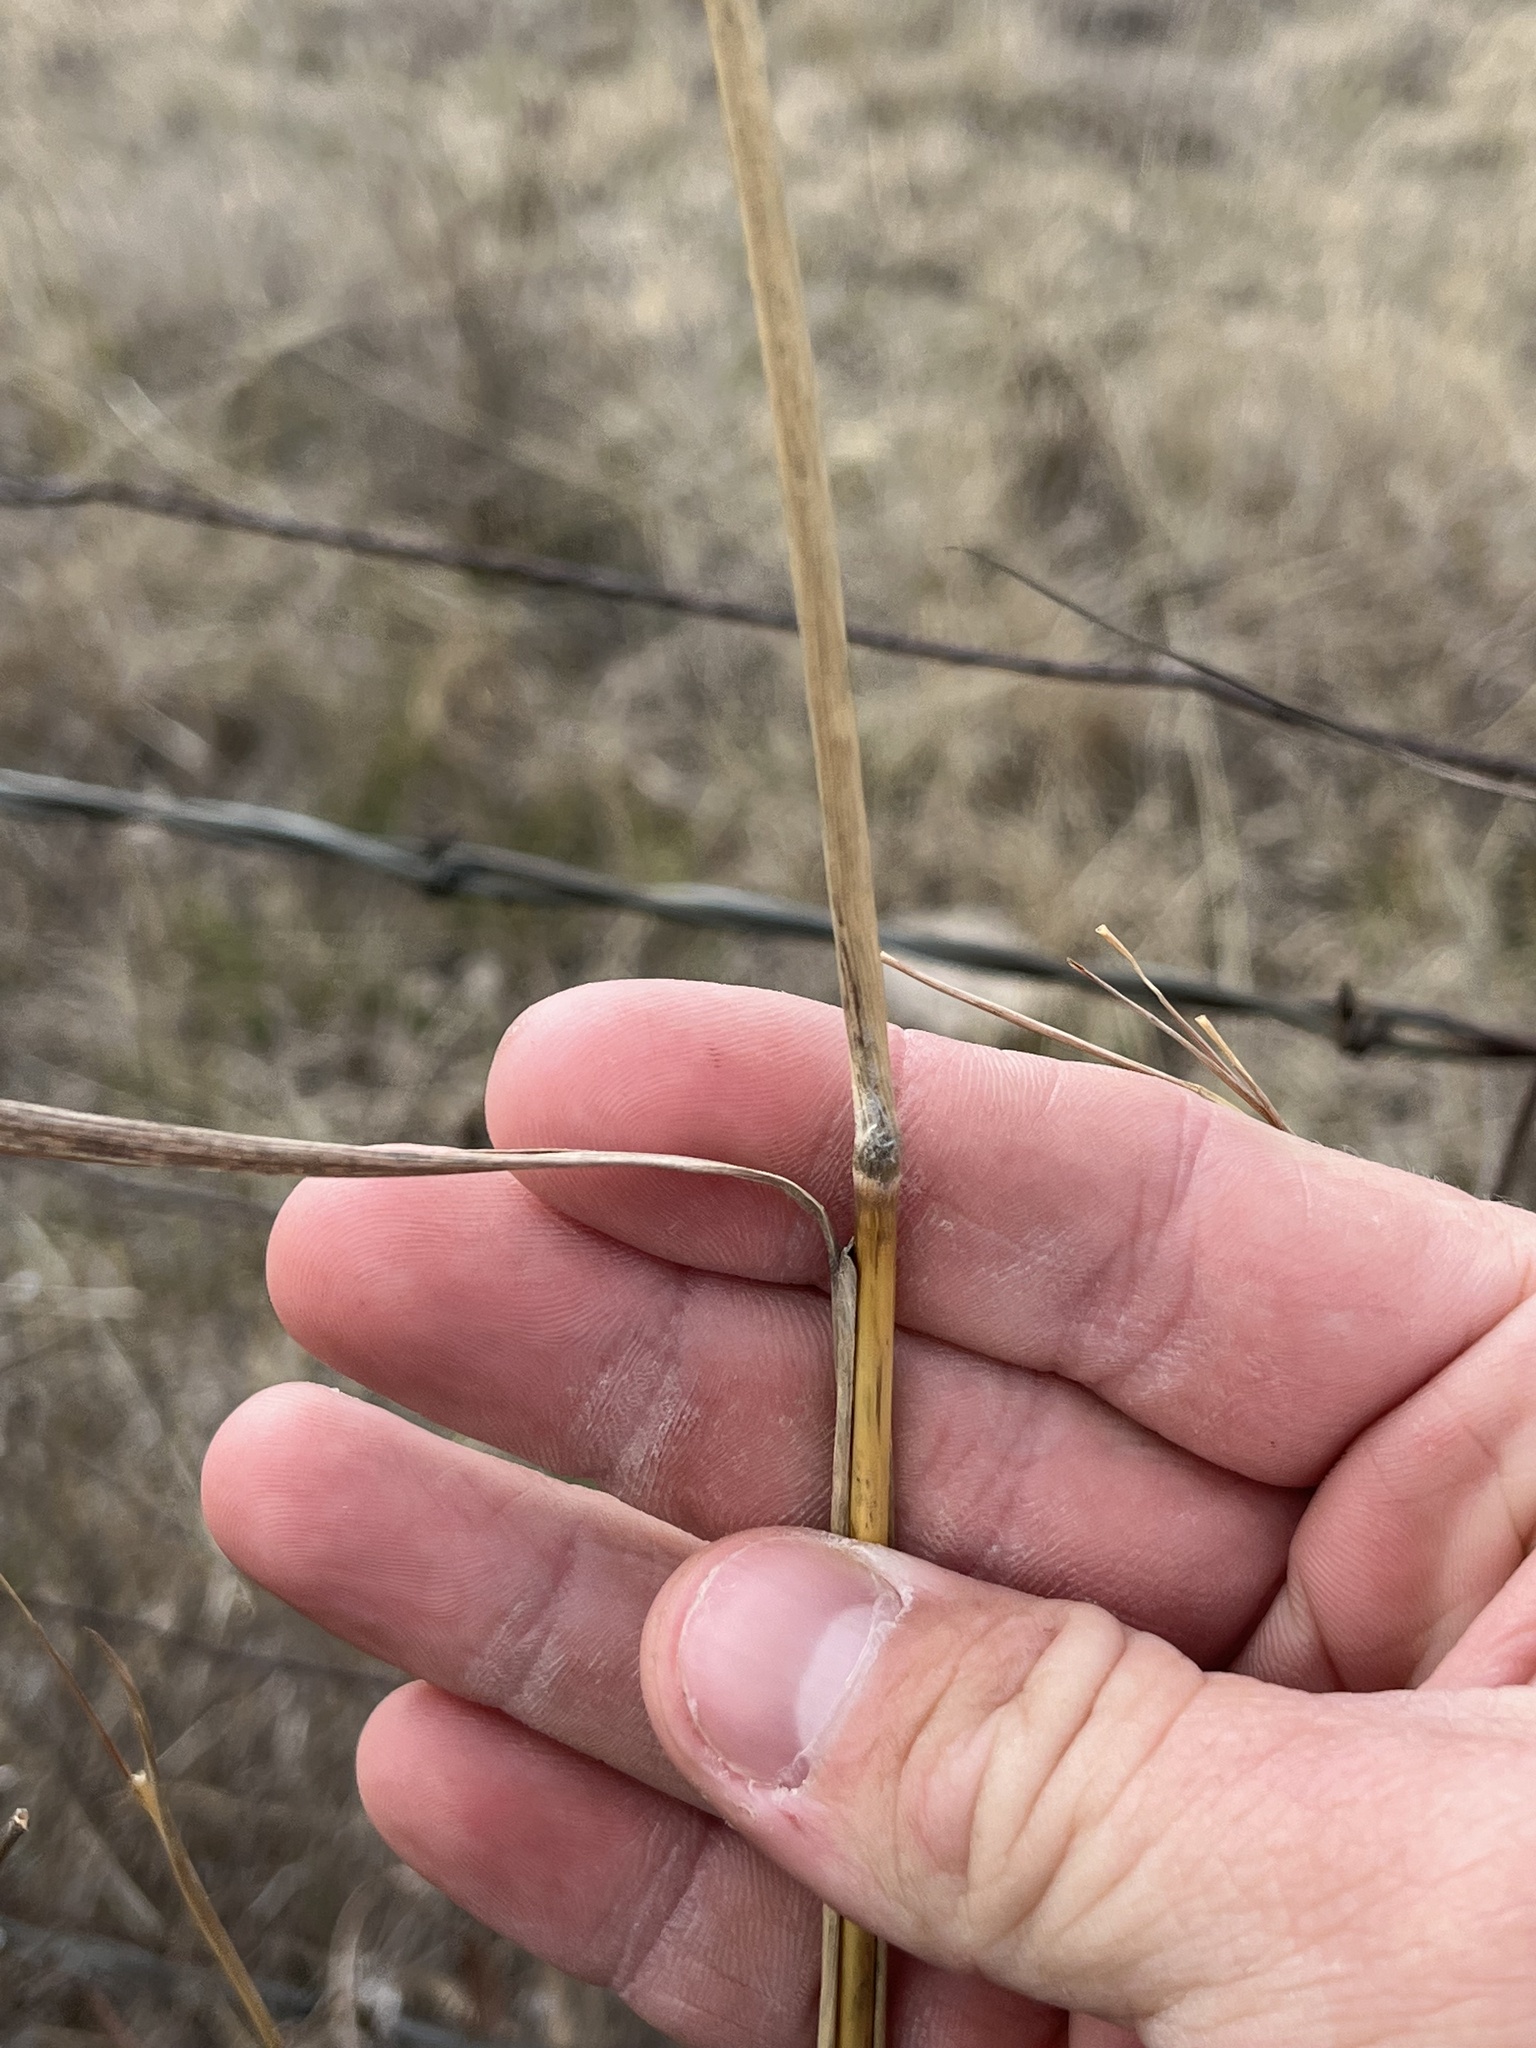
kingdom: Plantae
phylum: Tracheophyta
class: Liliopsida
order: Poales
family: Poaceae
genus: Sorghastrum
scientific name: Sorghastrum nutans
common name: Indian grass
